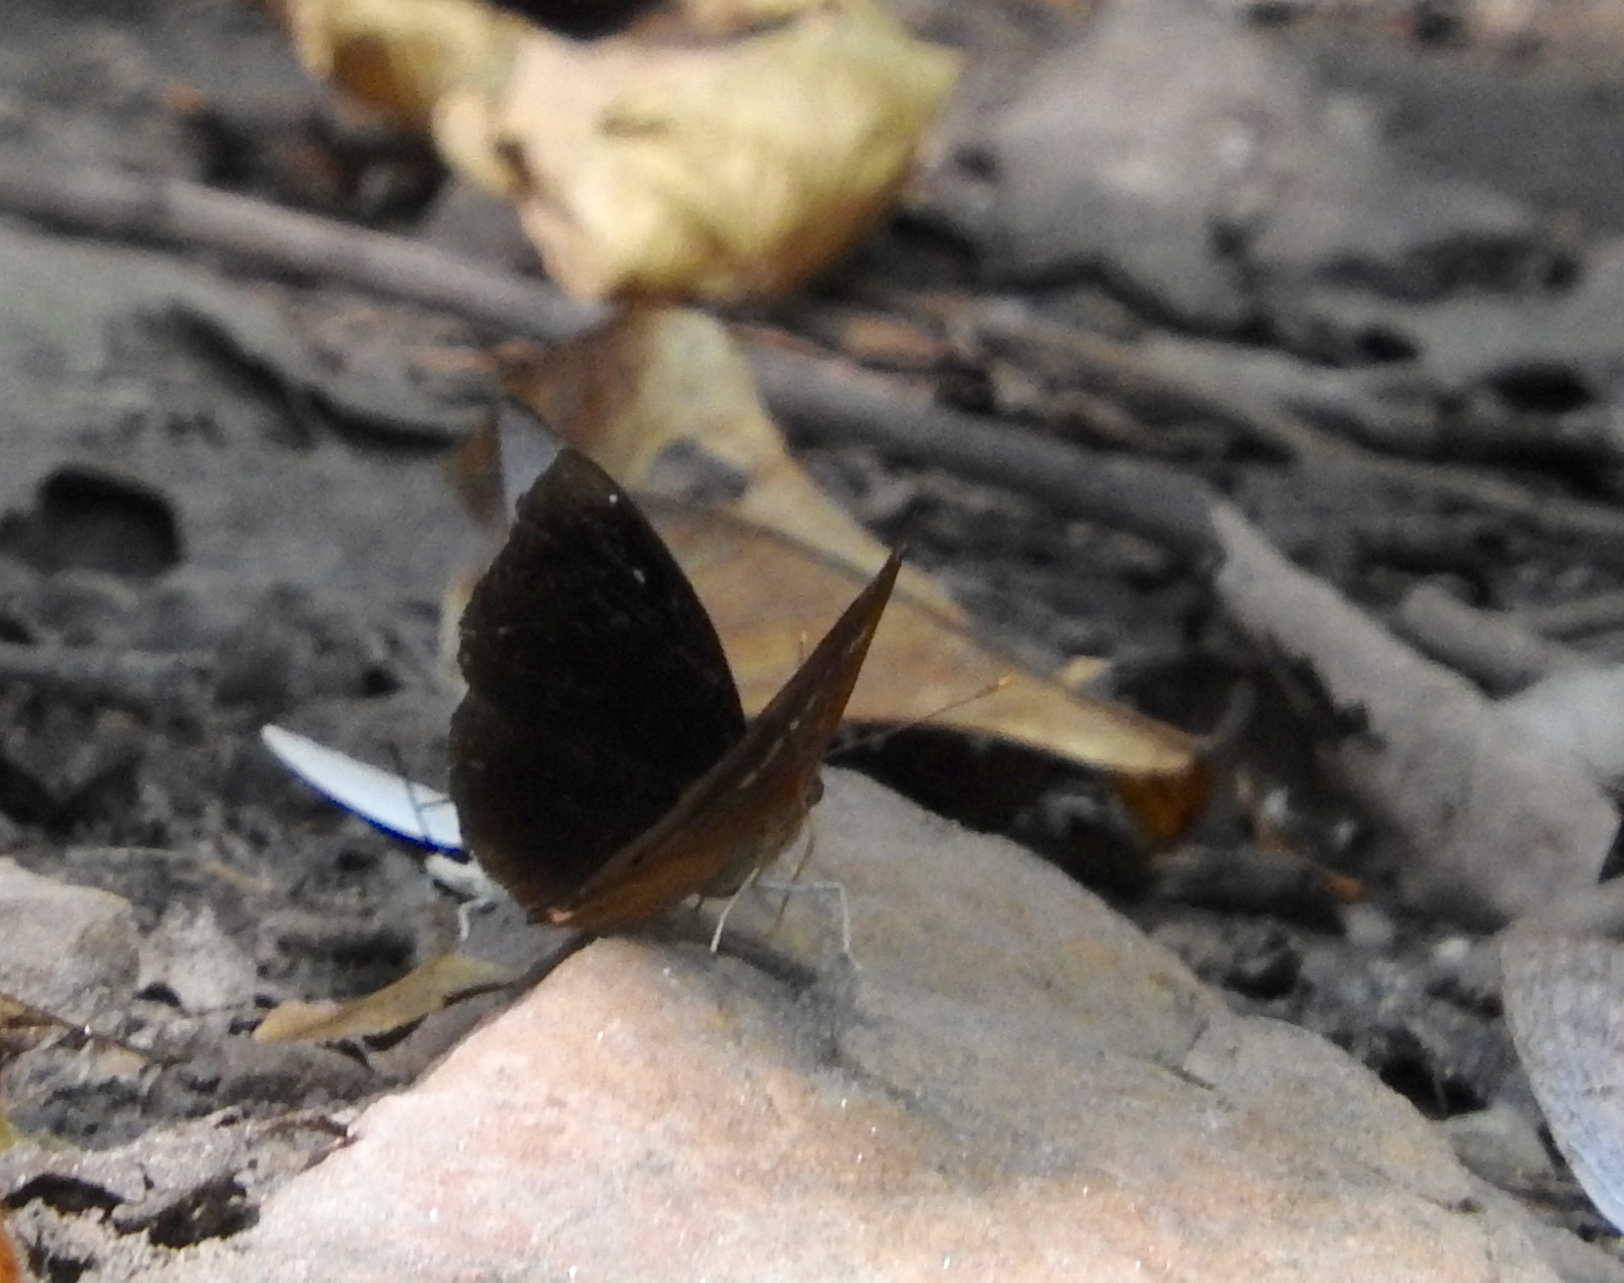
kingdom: Animalia
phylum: Arthropoda
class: Insecta
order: Lepidoptera
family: Nymphalidae
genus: Apatura
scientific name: Apatura Rohana spec
